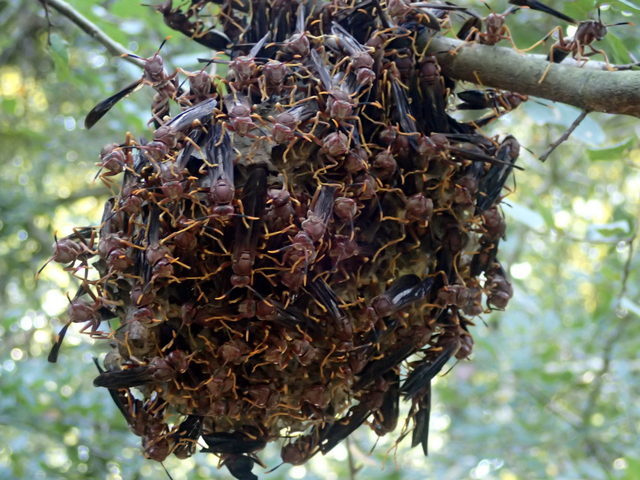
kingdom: Animalia
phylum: Arthropoda
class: Insecta
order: Hymenoptera
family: Eumenidae
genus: Polistes
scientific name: Polistes annularis
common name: Ringed paper wasp
